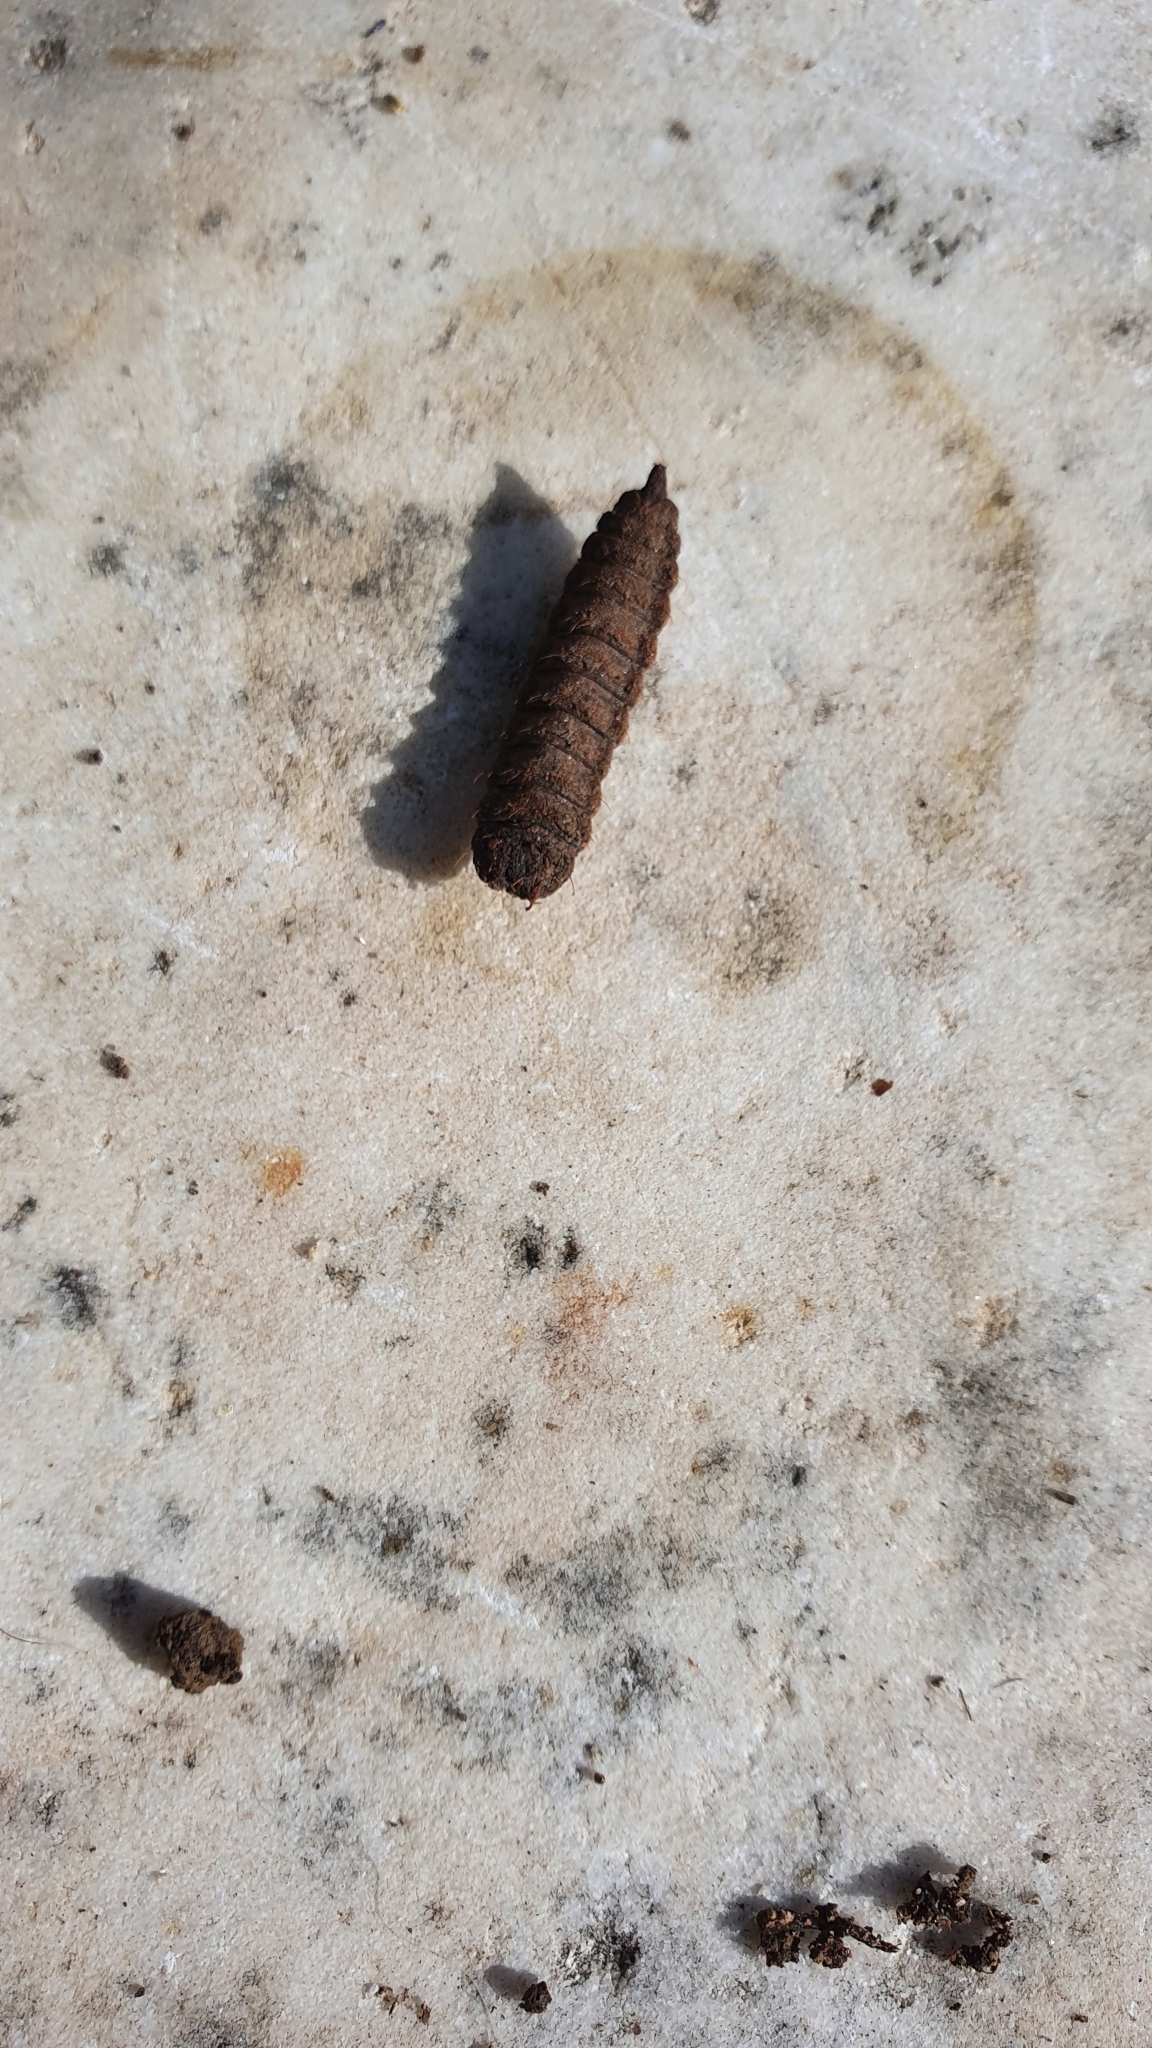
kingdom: Animalia
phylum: Arthropoda
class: Insecta
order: Diptera
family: Stratiomyidae
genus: Hermetia
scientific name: Hermetia illucens
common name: Black soldier fly
